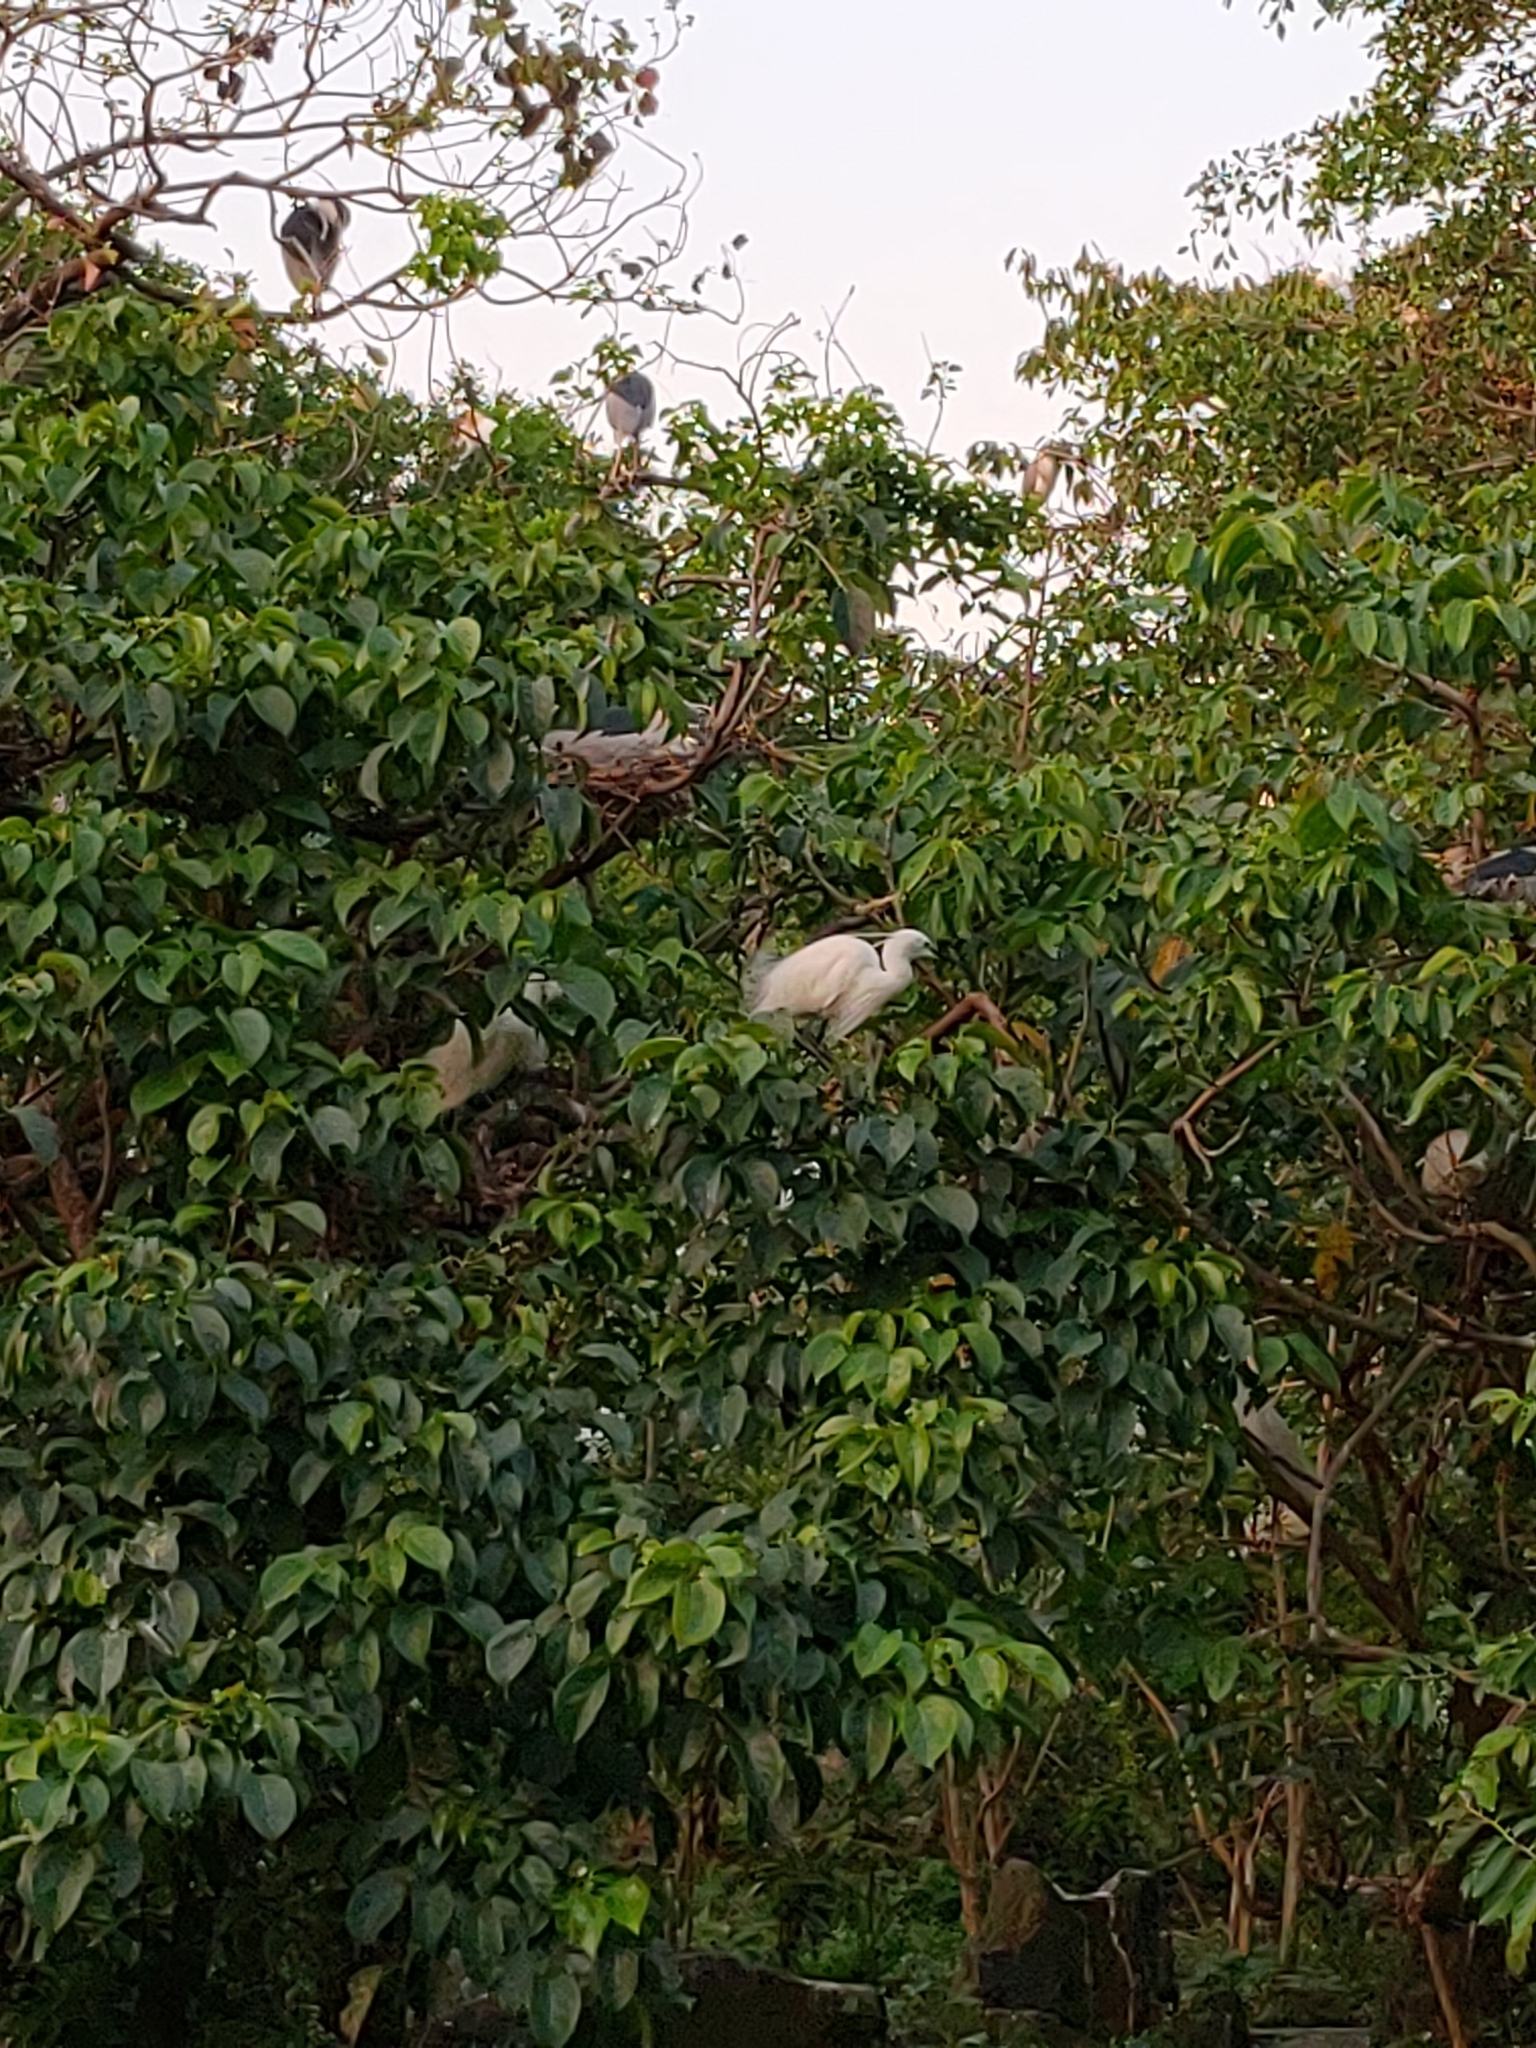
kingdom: Animalia
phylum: Chordata
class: Aves
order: Pelecaniformes
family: Ardeidae
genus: Egretta
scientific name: Egretta garzetta
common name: Little egret
